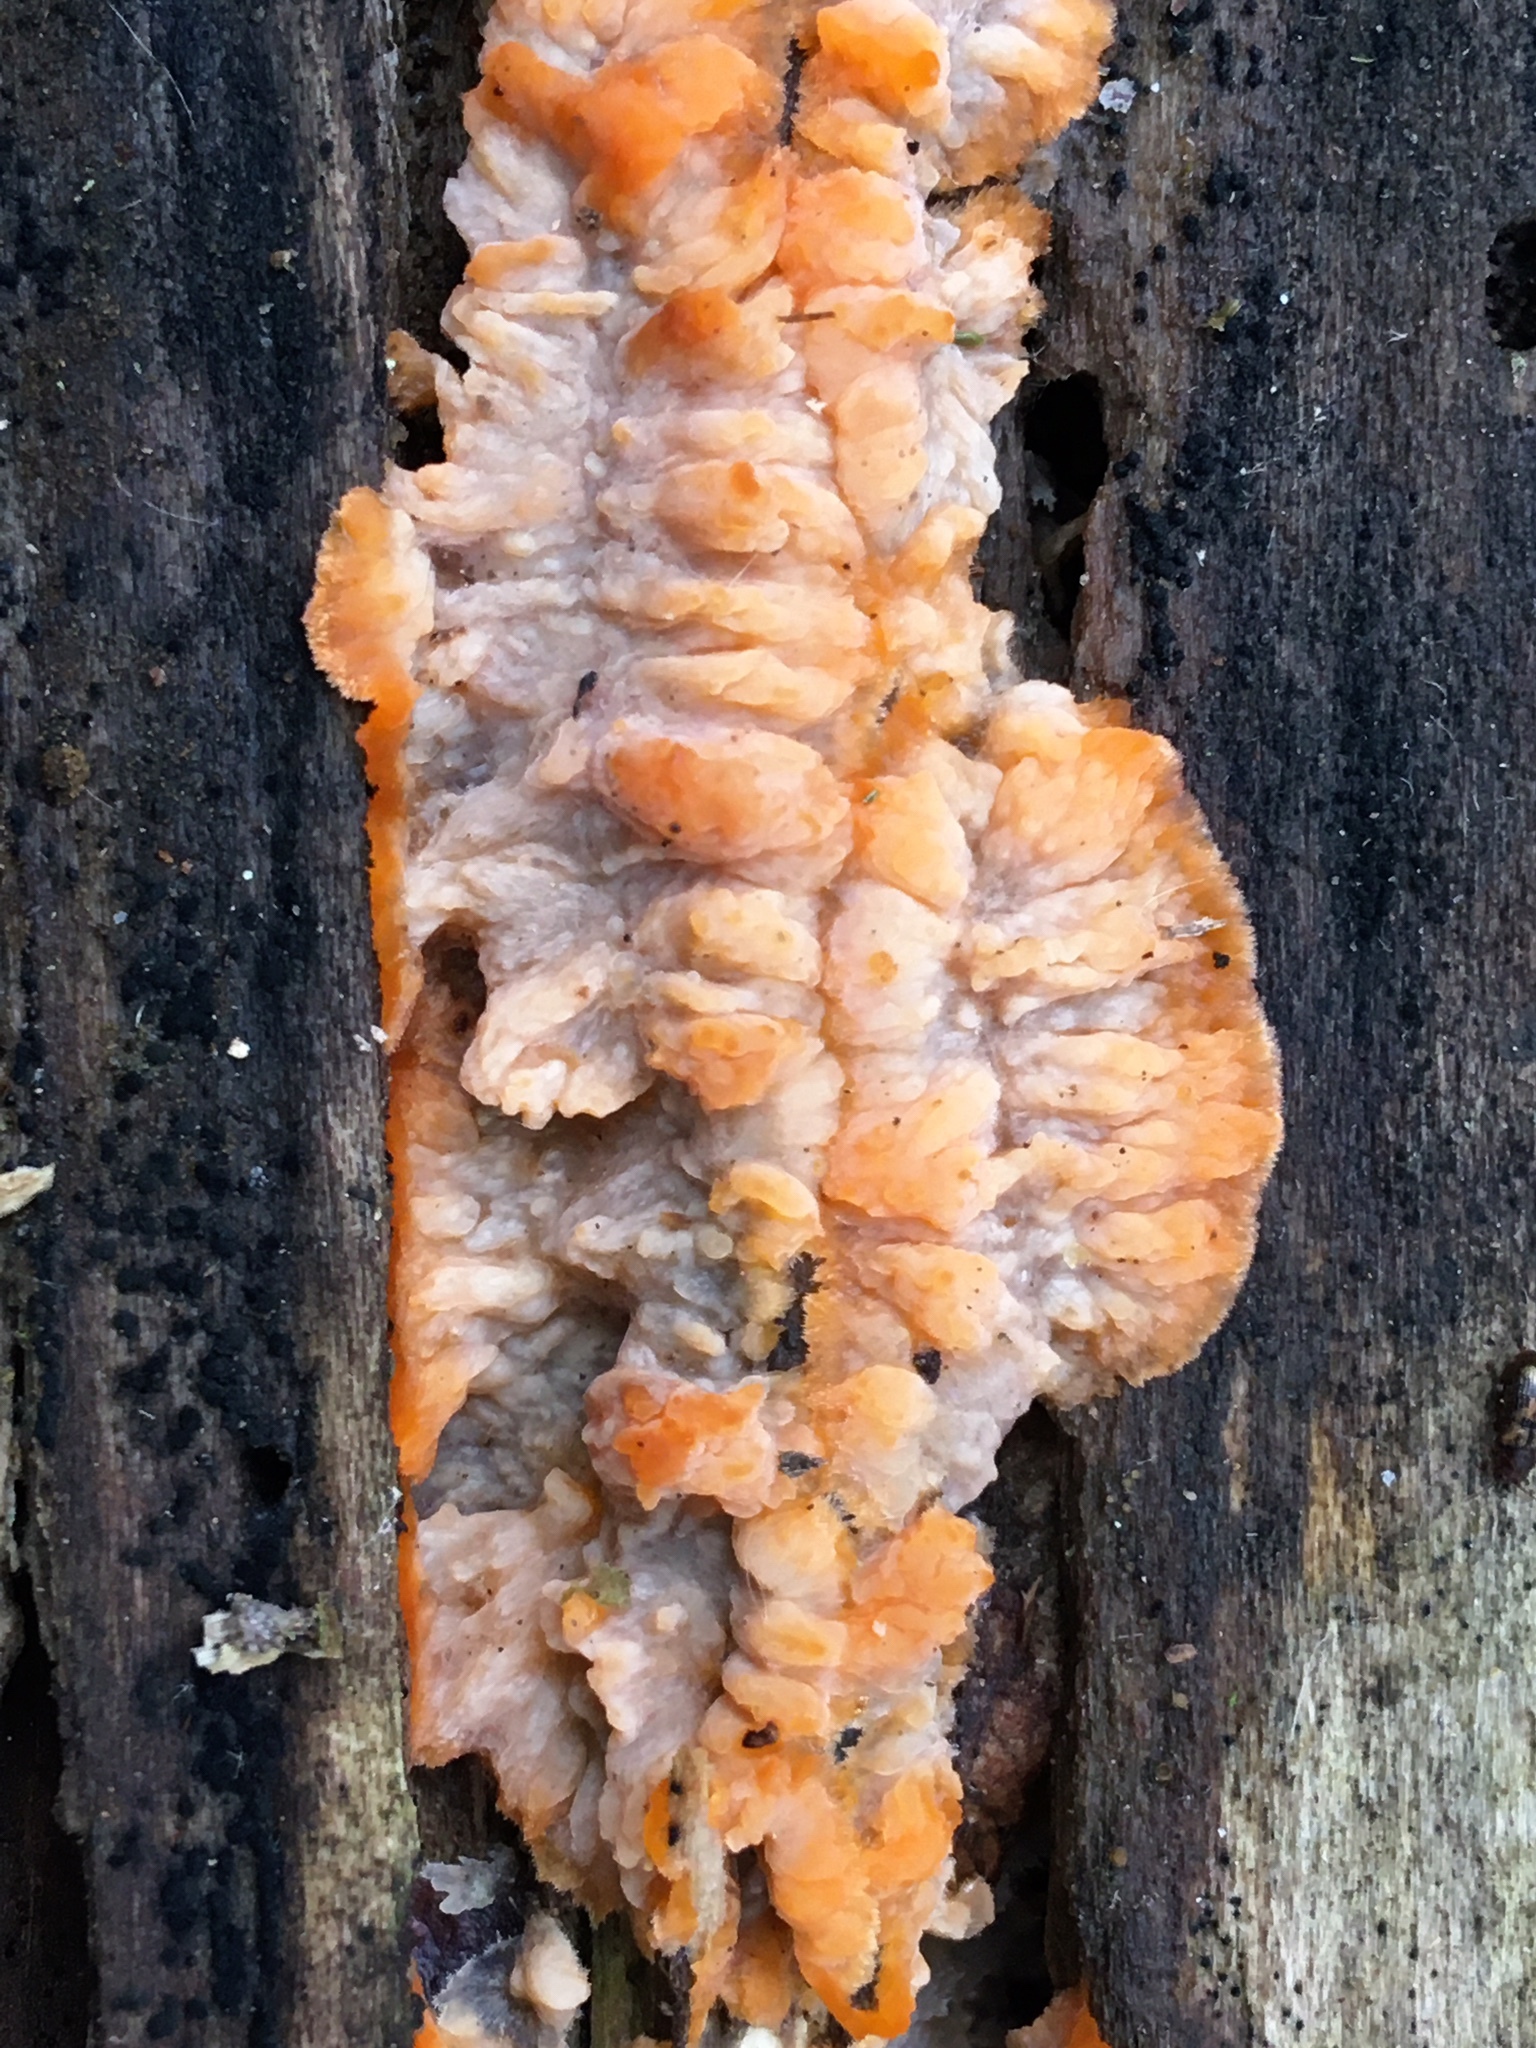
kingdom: Fungi
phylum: Basidiomycota
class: Agaricomycetes
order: Polyporales
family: Meruliaceae
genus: Phlebia
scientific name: Phlebia radiata
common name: Wrinkled crust
